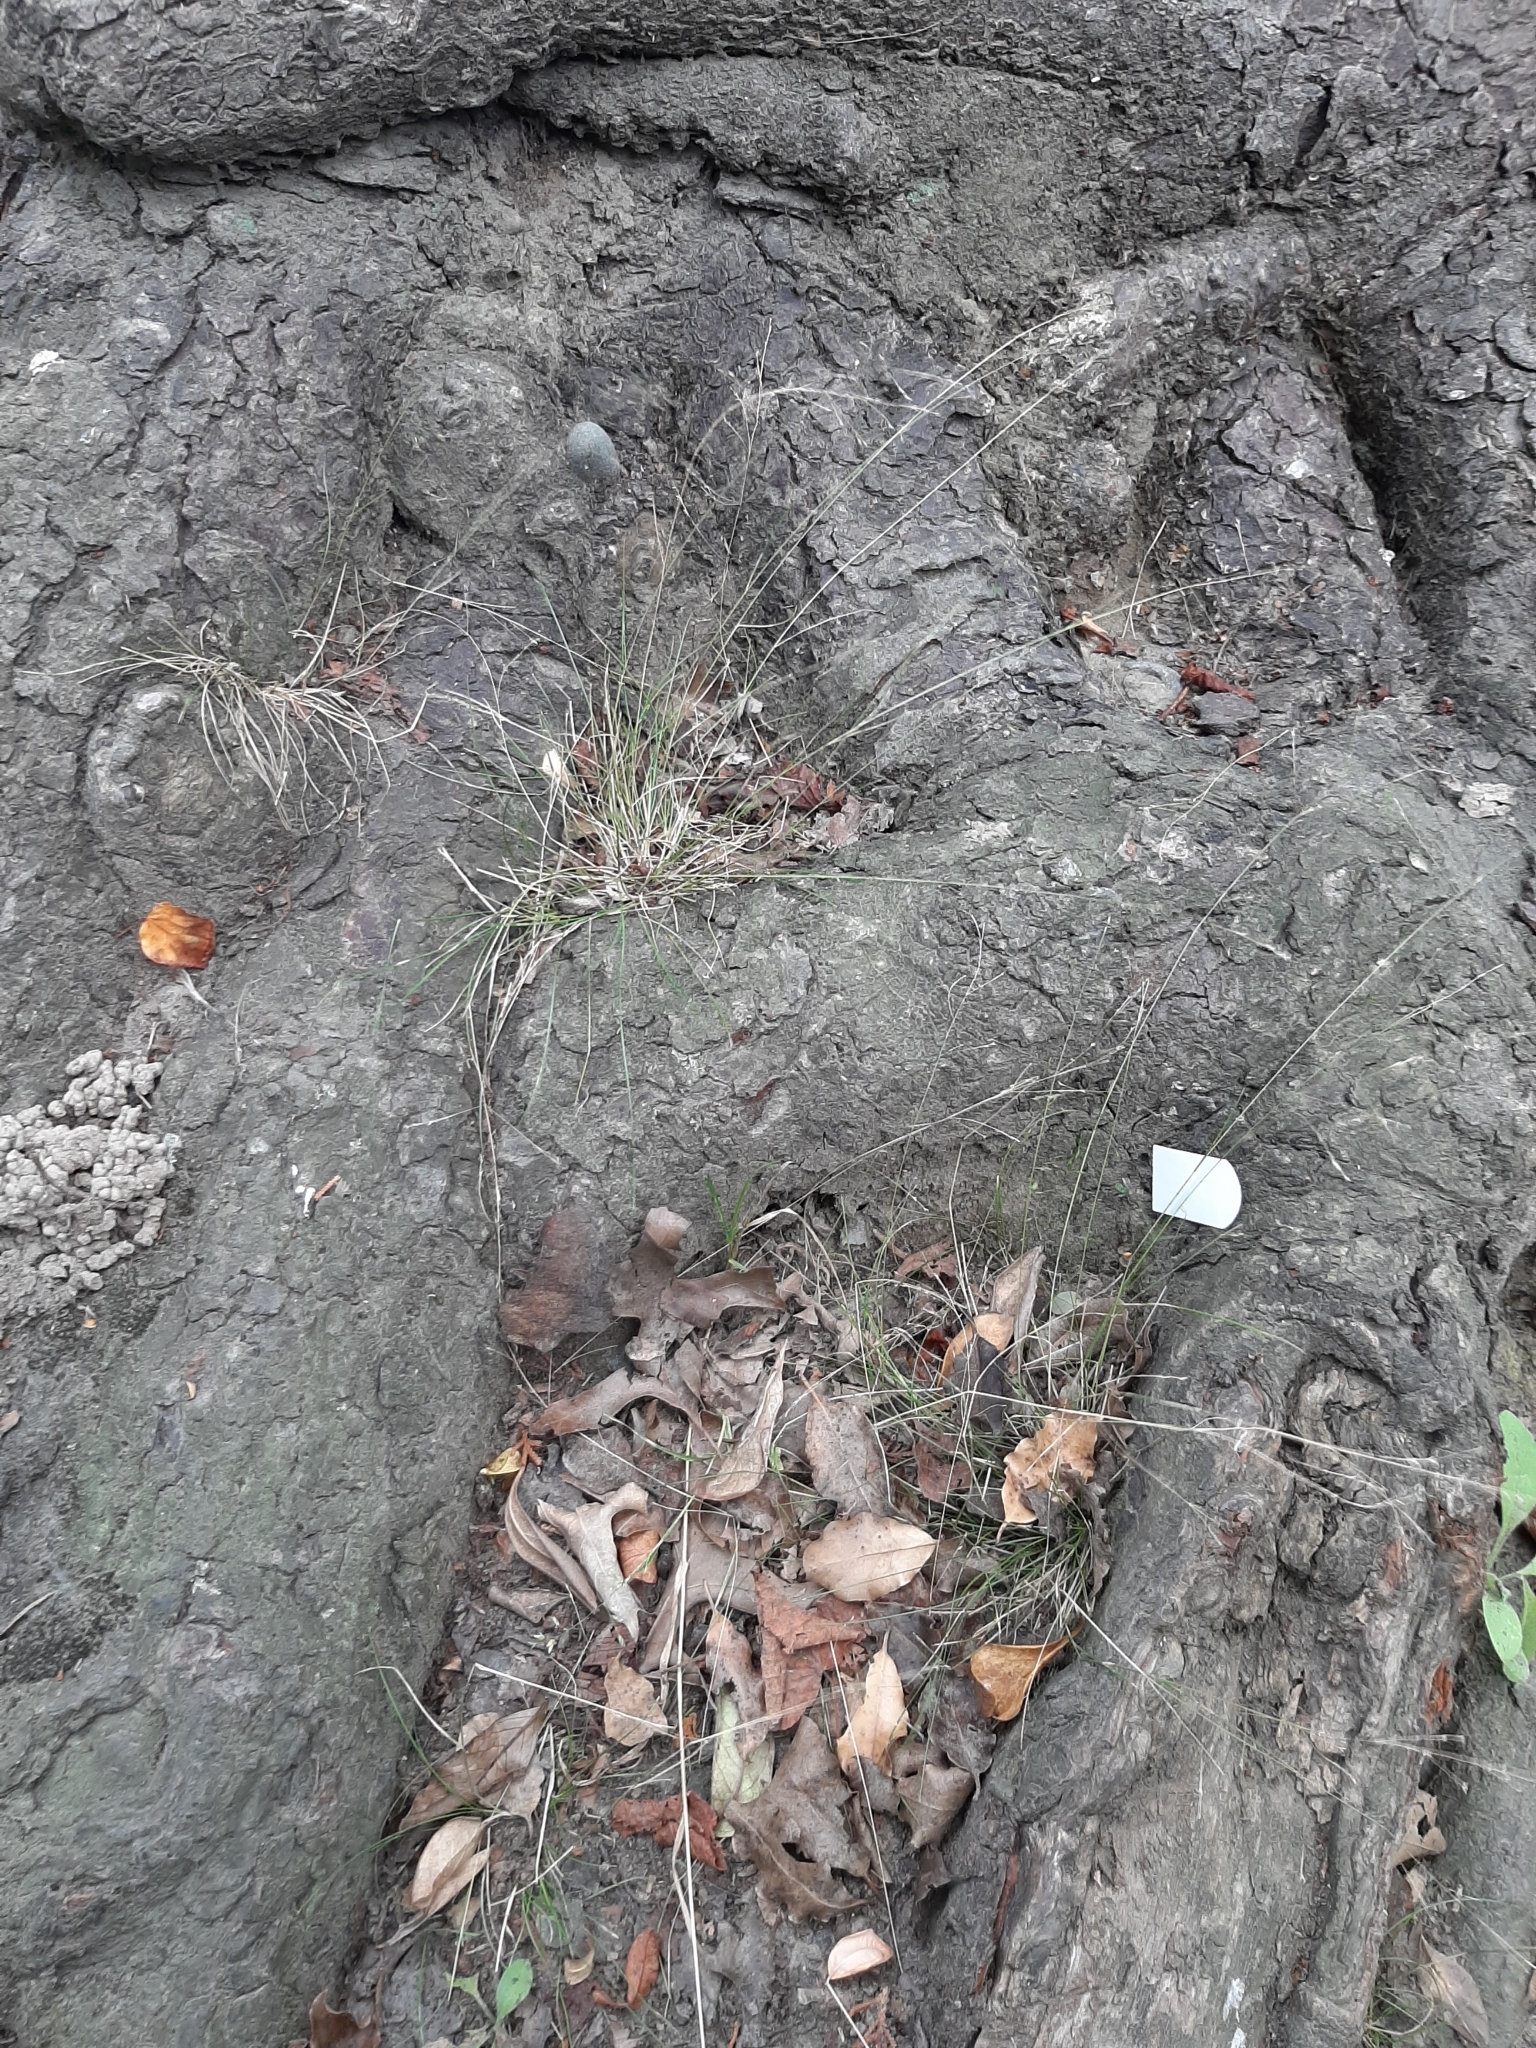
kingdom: Plantae
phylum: Tracheophyta
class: Liliopsida
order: Poales
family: Poaceae
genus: Poa
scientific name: Poa imbecilla
